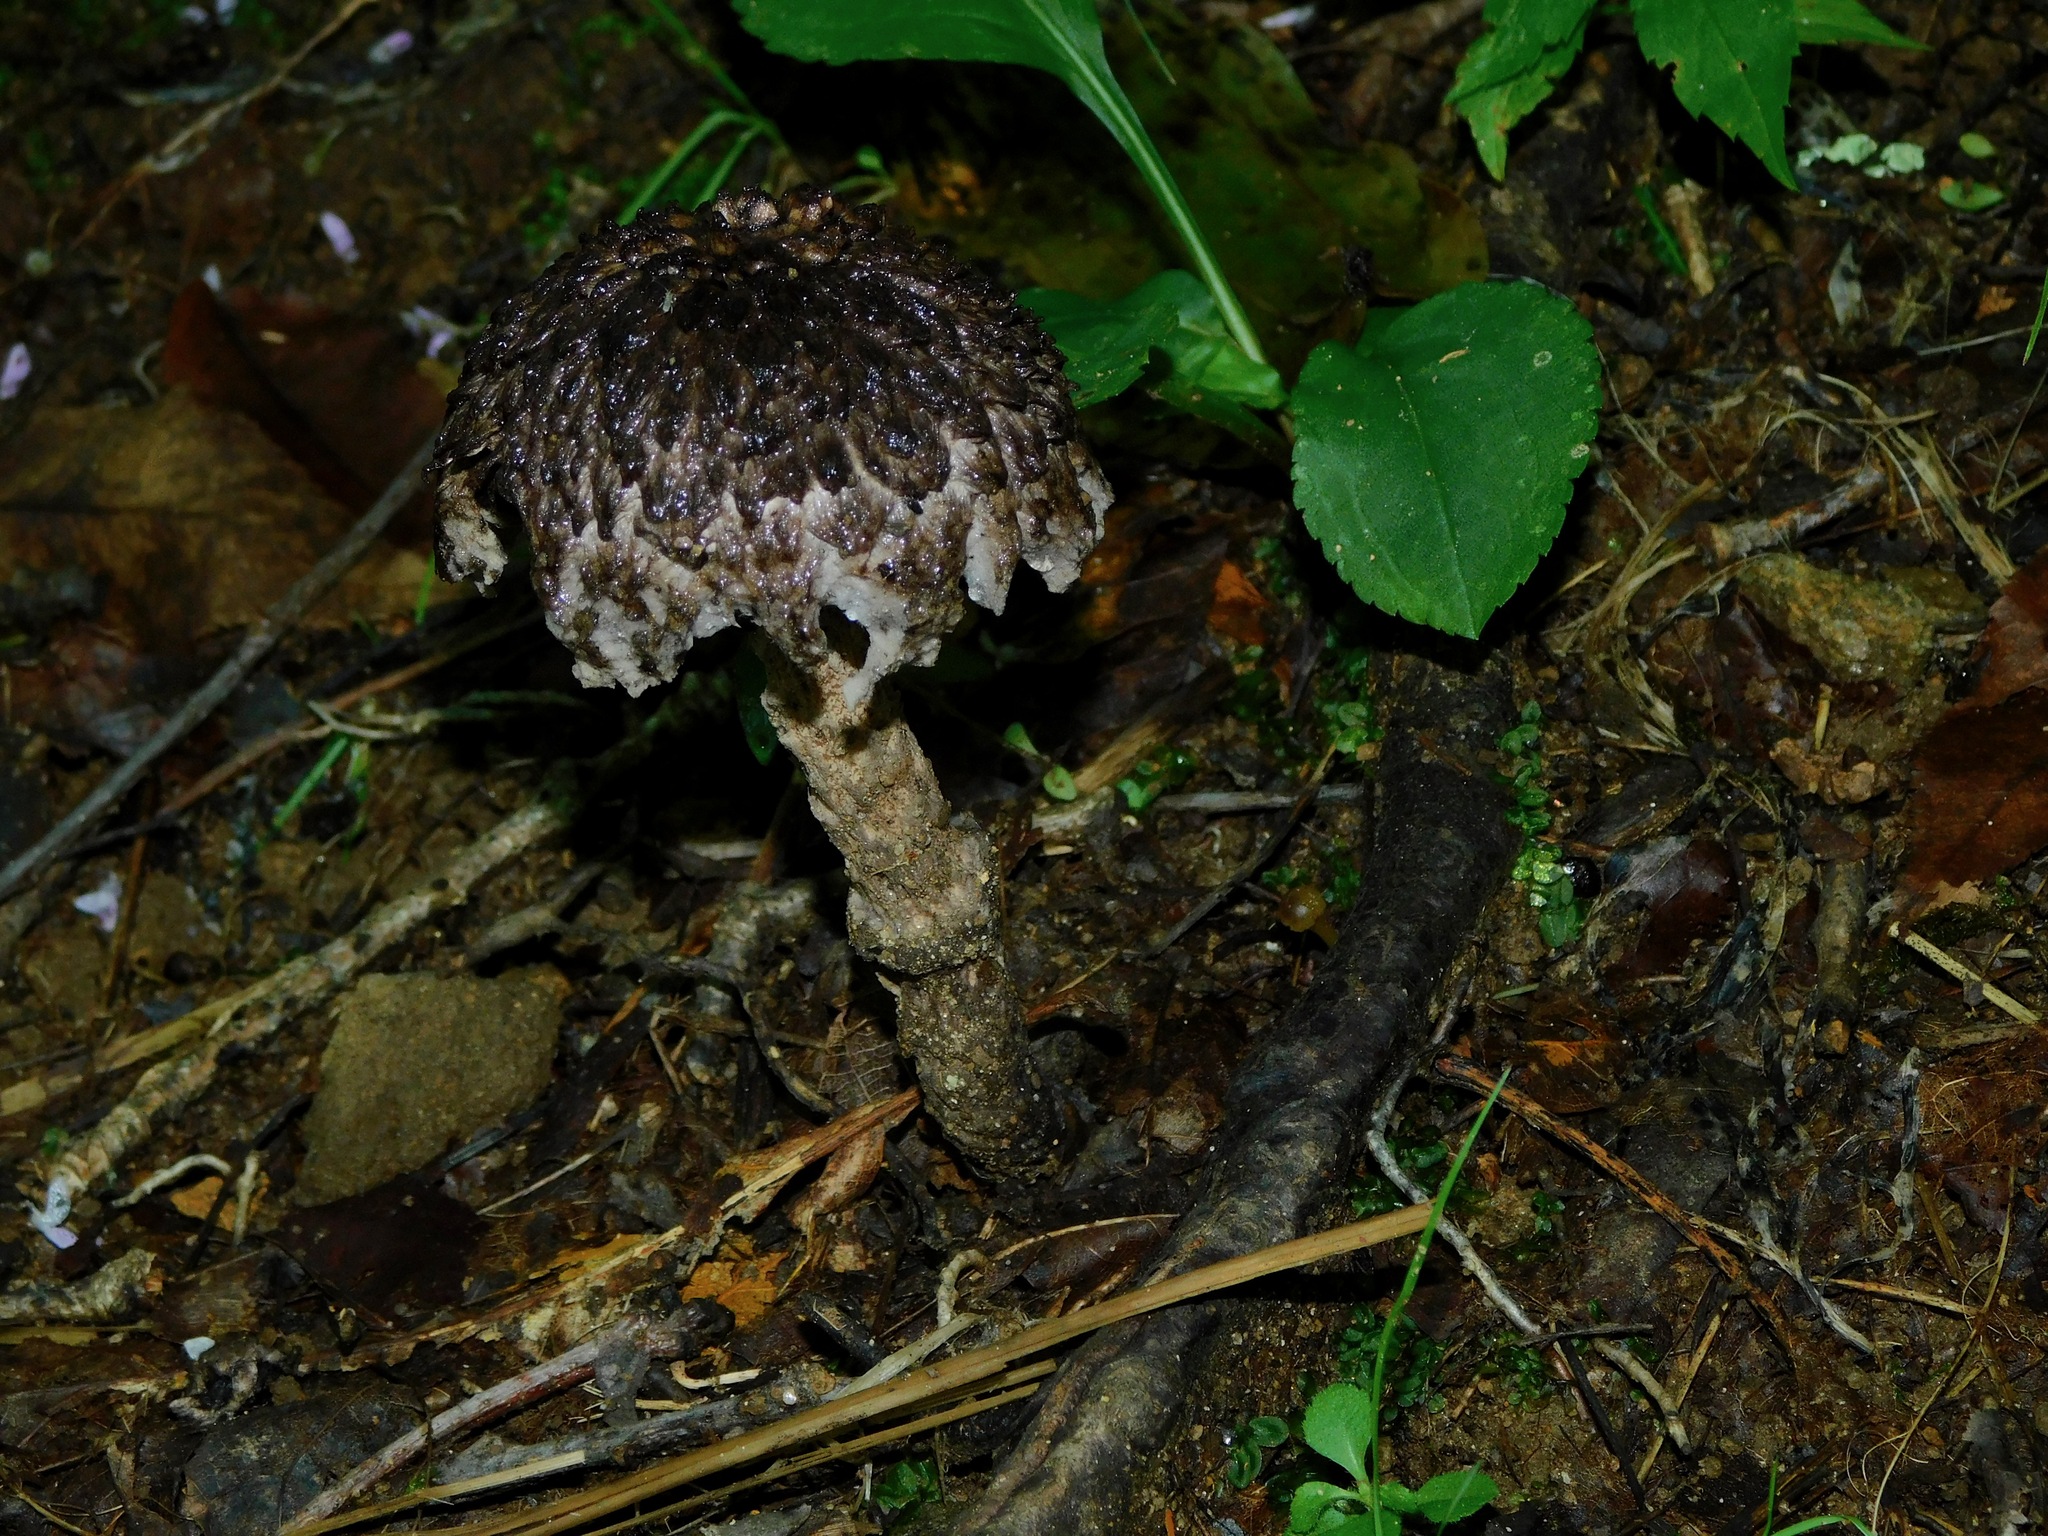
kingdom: Fungi
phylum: Basidiomycota
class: Agaricomycetes
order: Boletales
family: Boletaceae
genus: Strobilomyces
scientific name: Strobilomyces strobilaceus
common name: Old man of the woods
